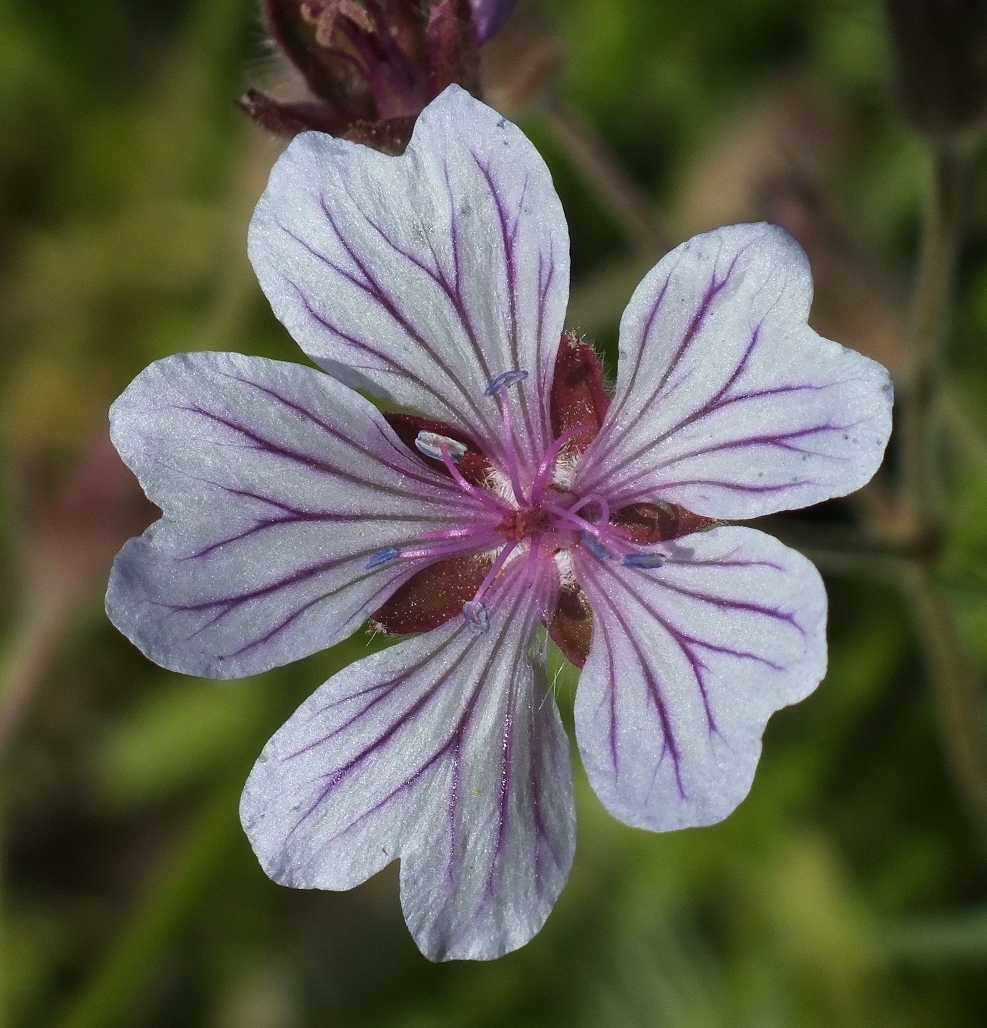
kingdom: Plantae
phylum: Tracheophyta
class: Magnoliopsida
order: Geraniales
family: Geraniaceae
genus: Geranium
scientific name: Geranium linearilobum
